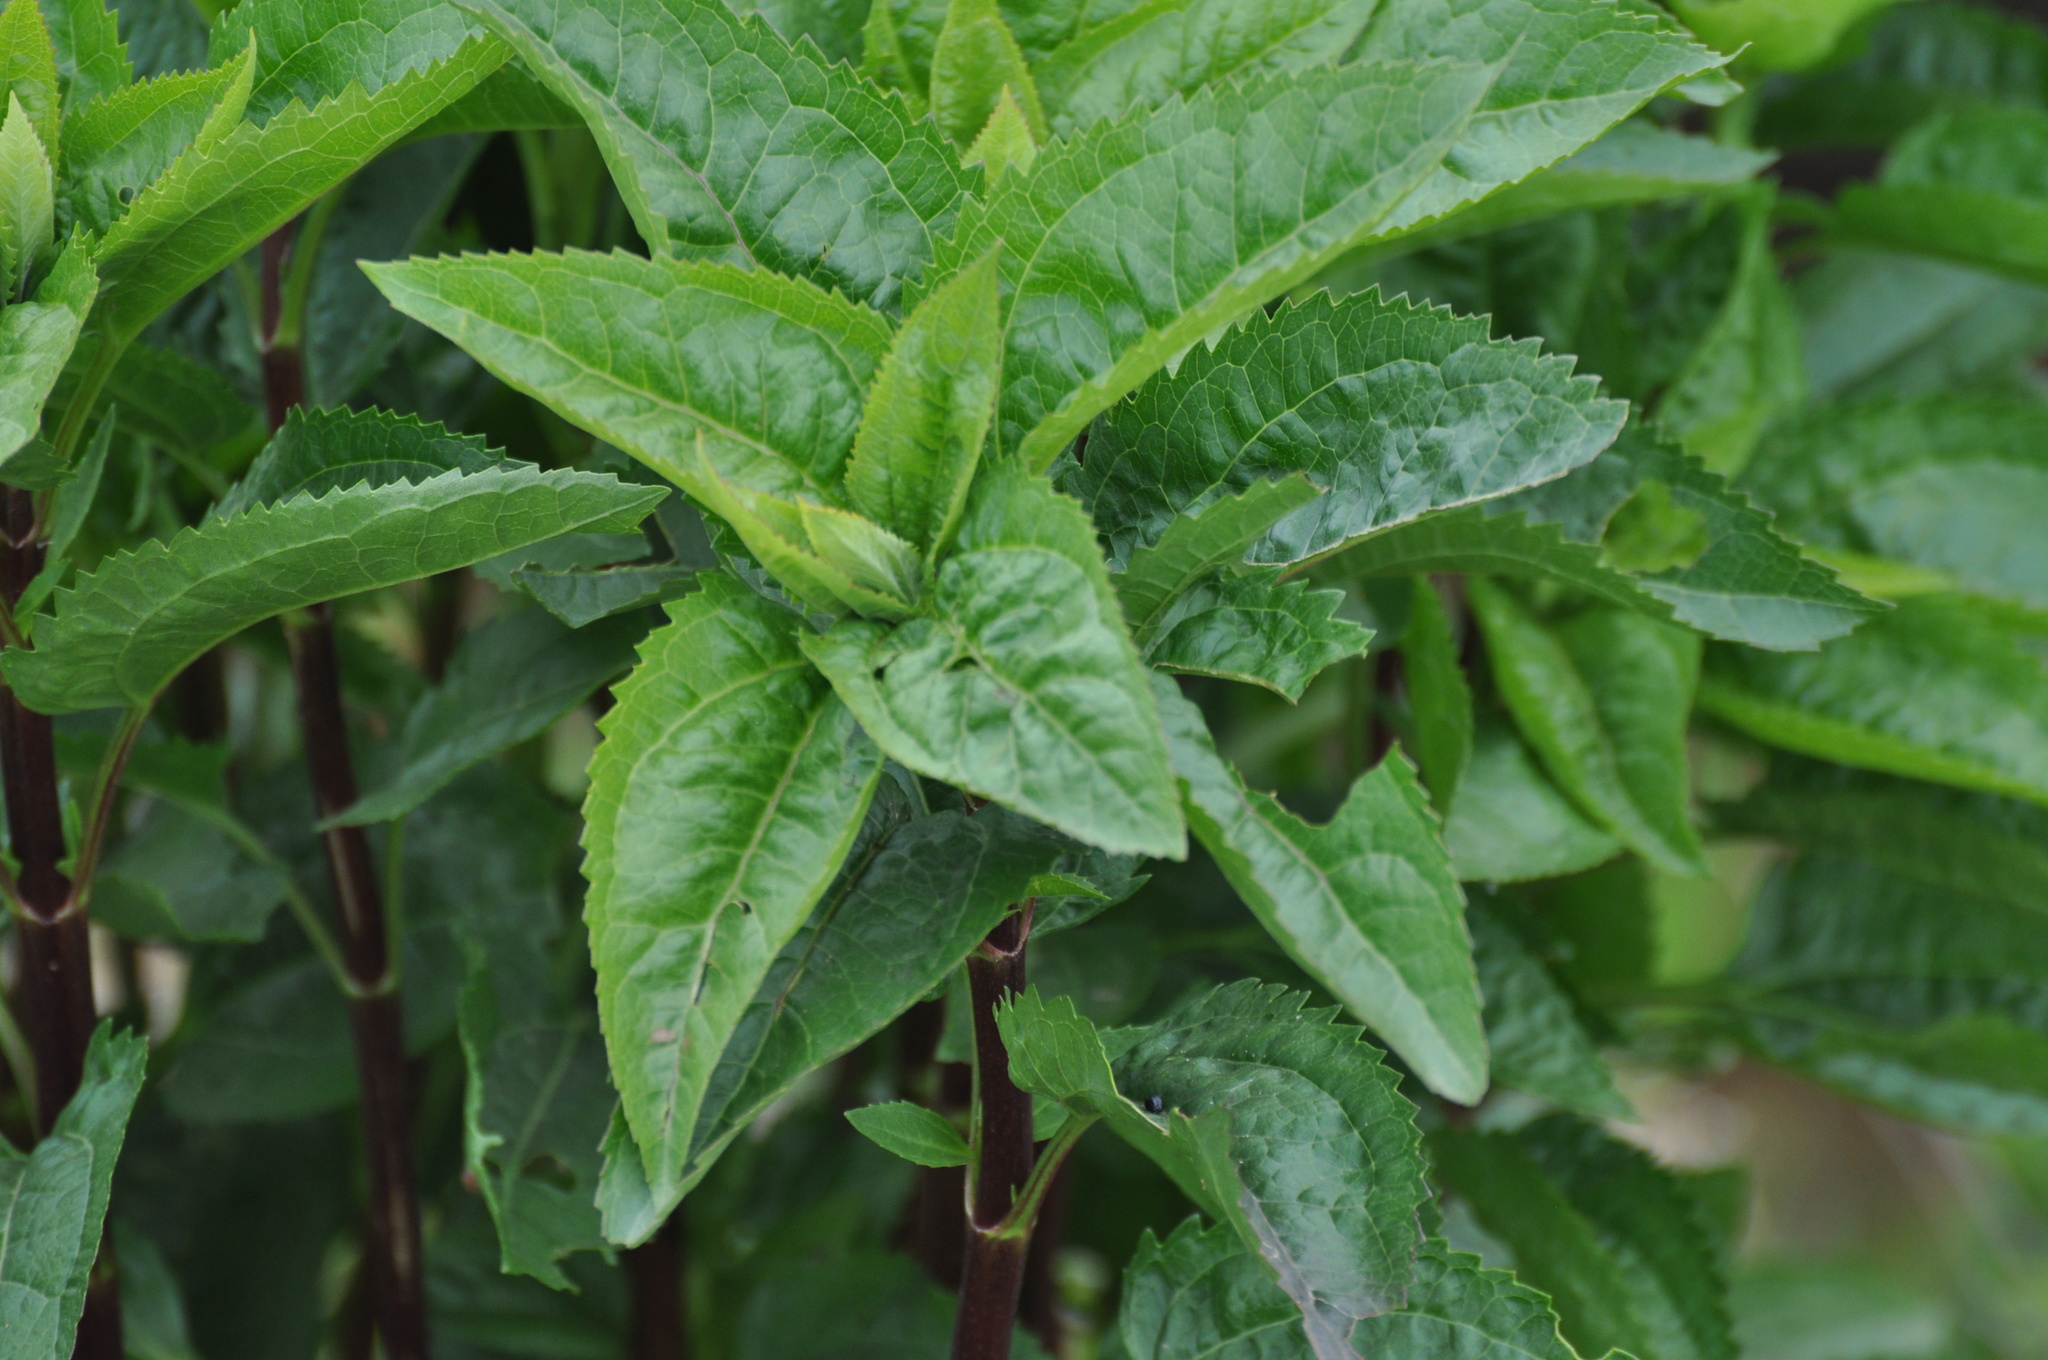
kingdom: Plantae
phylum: Tracheophyta
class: Magnoliopsida
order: Asterales
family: Asteraceae
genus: Ageratina
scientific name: Ageratina altissima
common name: White snakeroot
